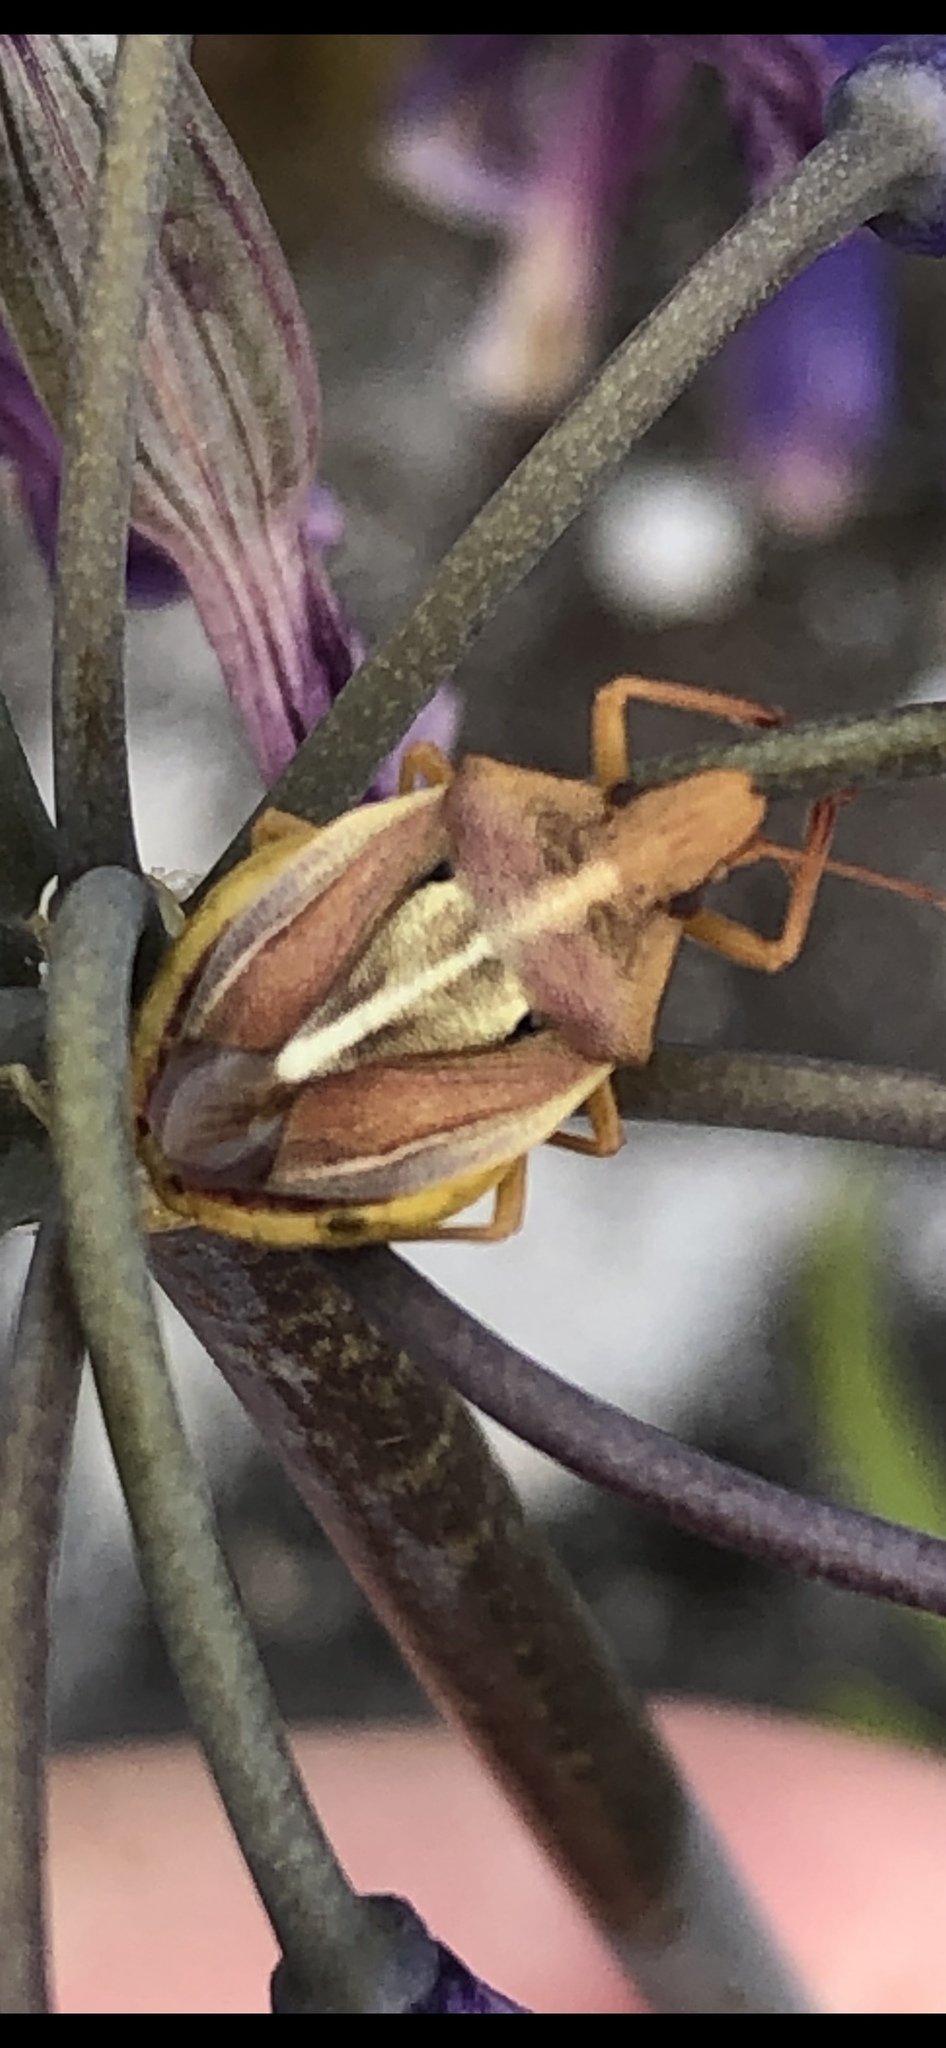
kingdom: Animalia
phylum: Arthropoda
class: Insecta
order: Hemiptera
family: Pentatomidae
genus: Tropicorypha
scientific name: Tropicorypha
